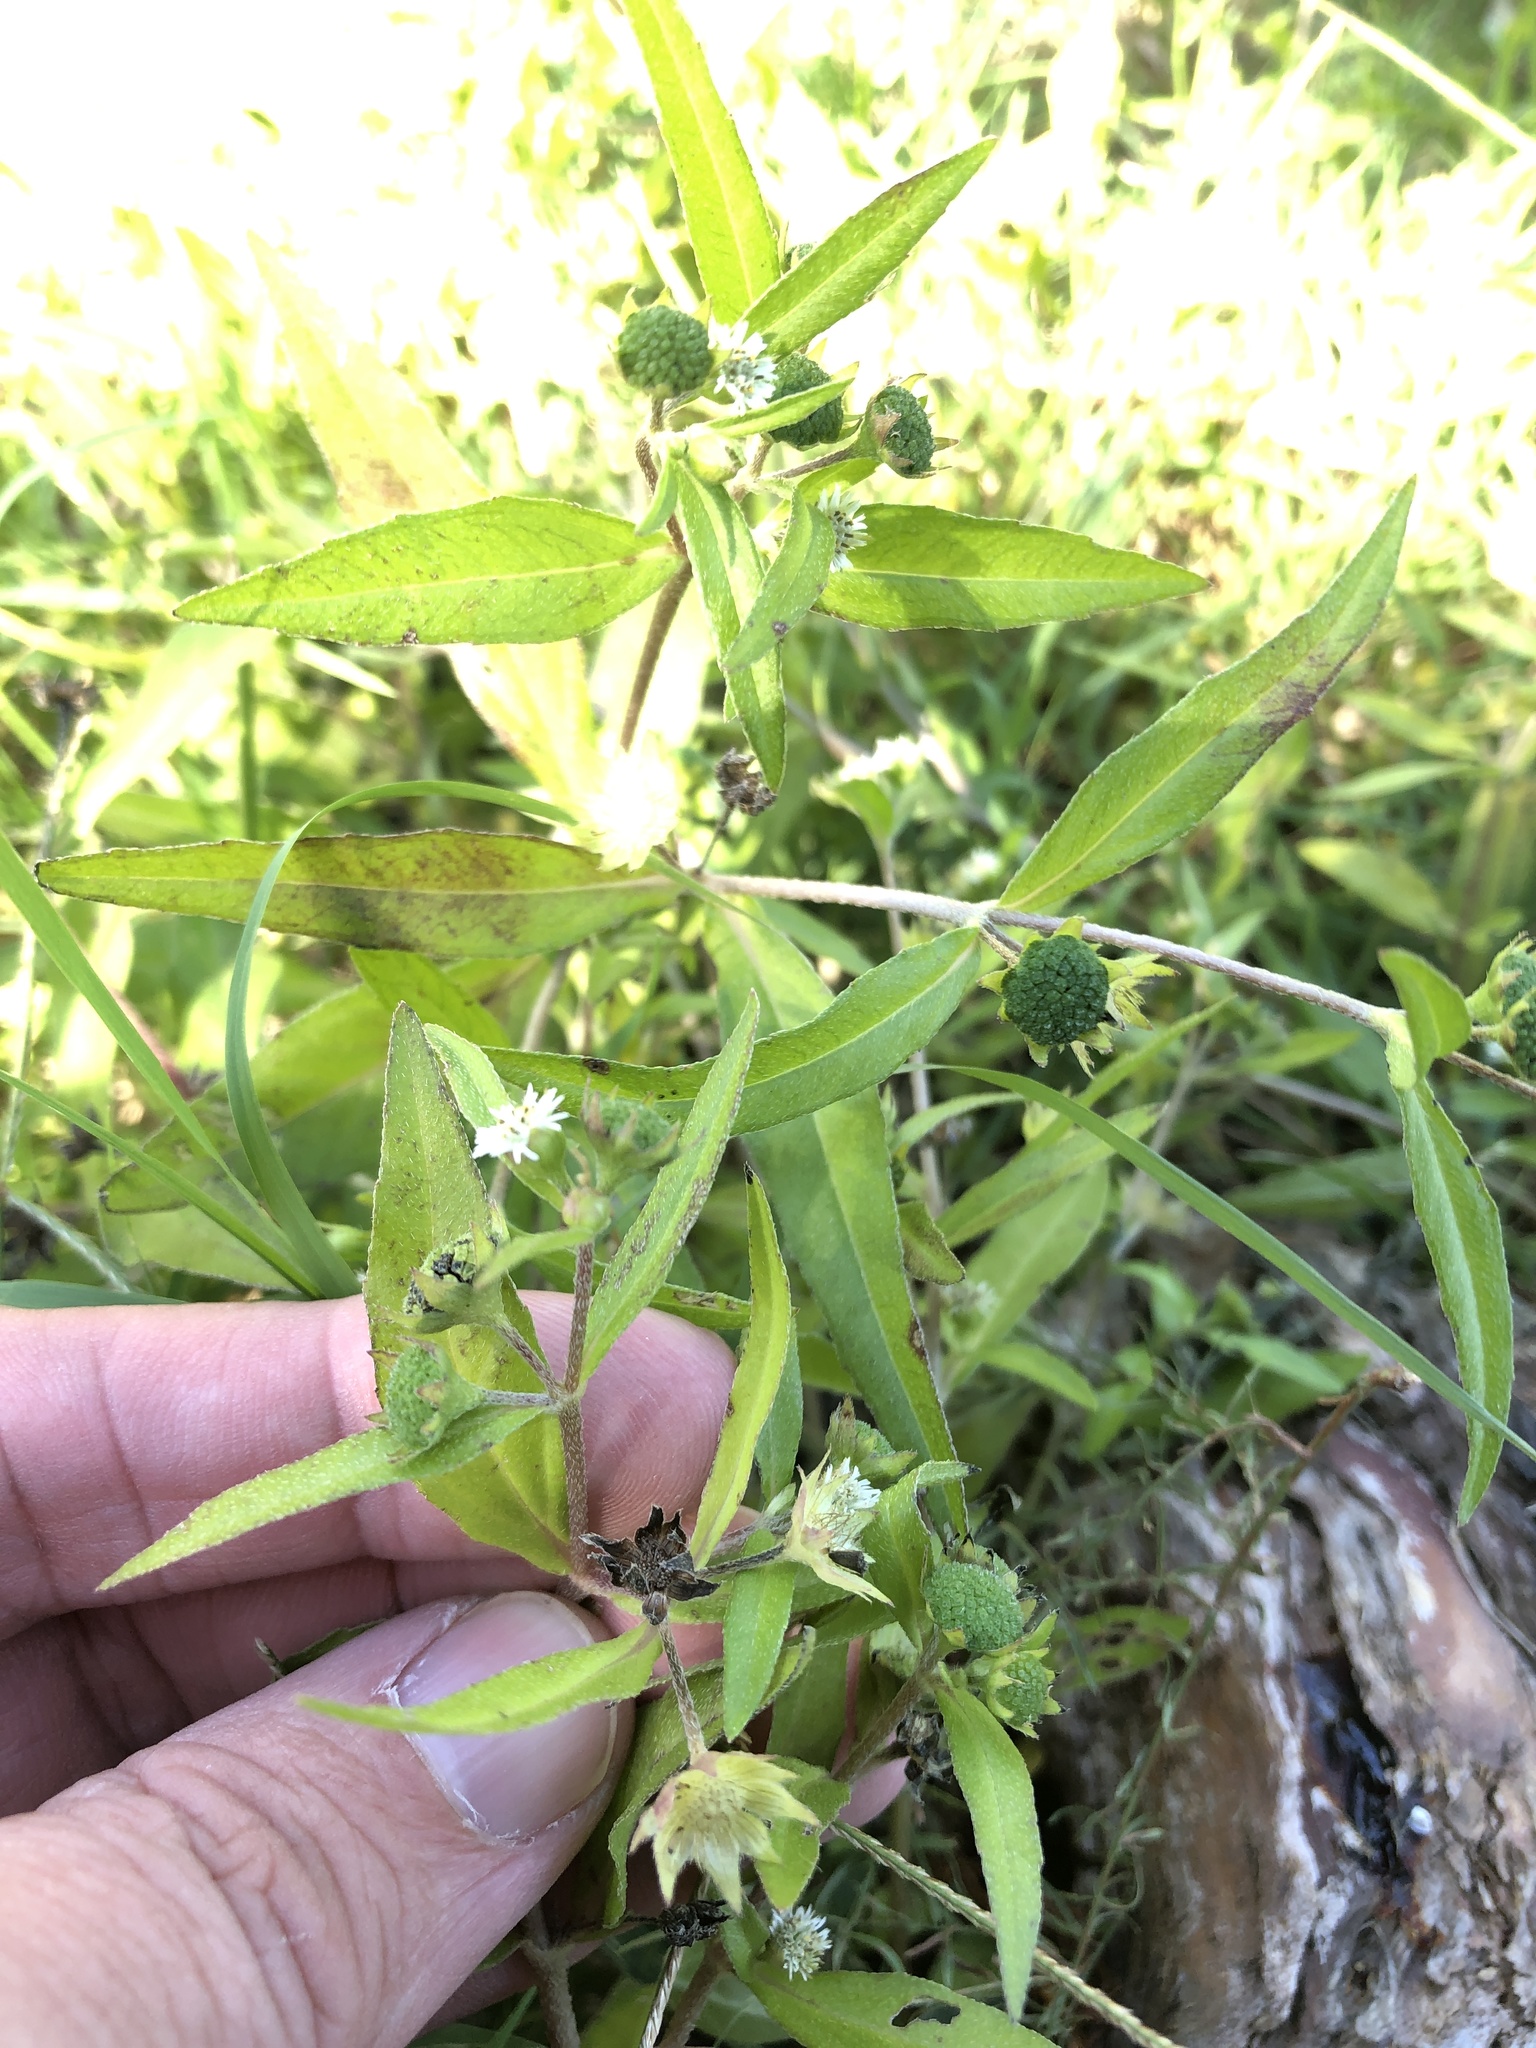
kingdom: Plantae
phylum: Tracheophyta
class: Magnoliopsida
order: Asterales
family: Asteraceae
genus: Eclipta
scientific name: Eclipta prostrata
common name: False daisy
